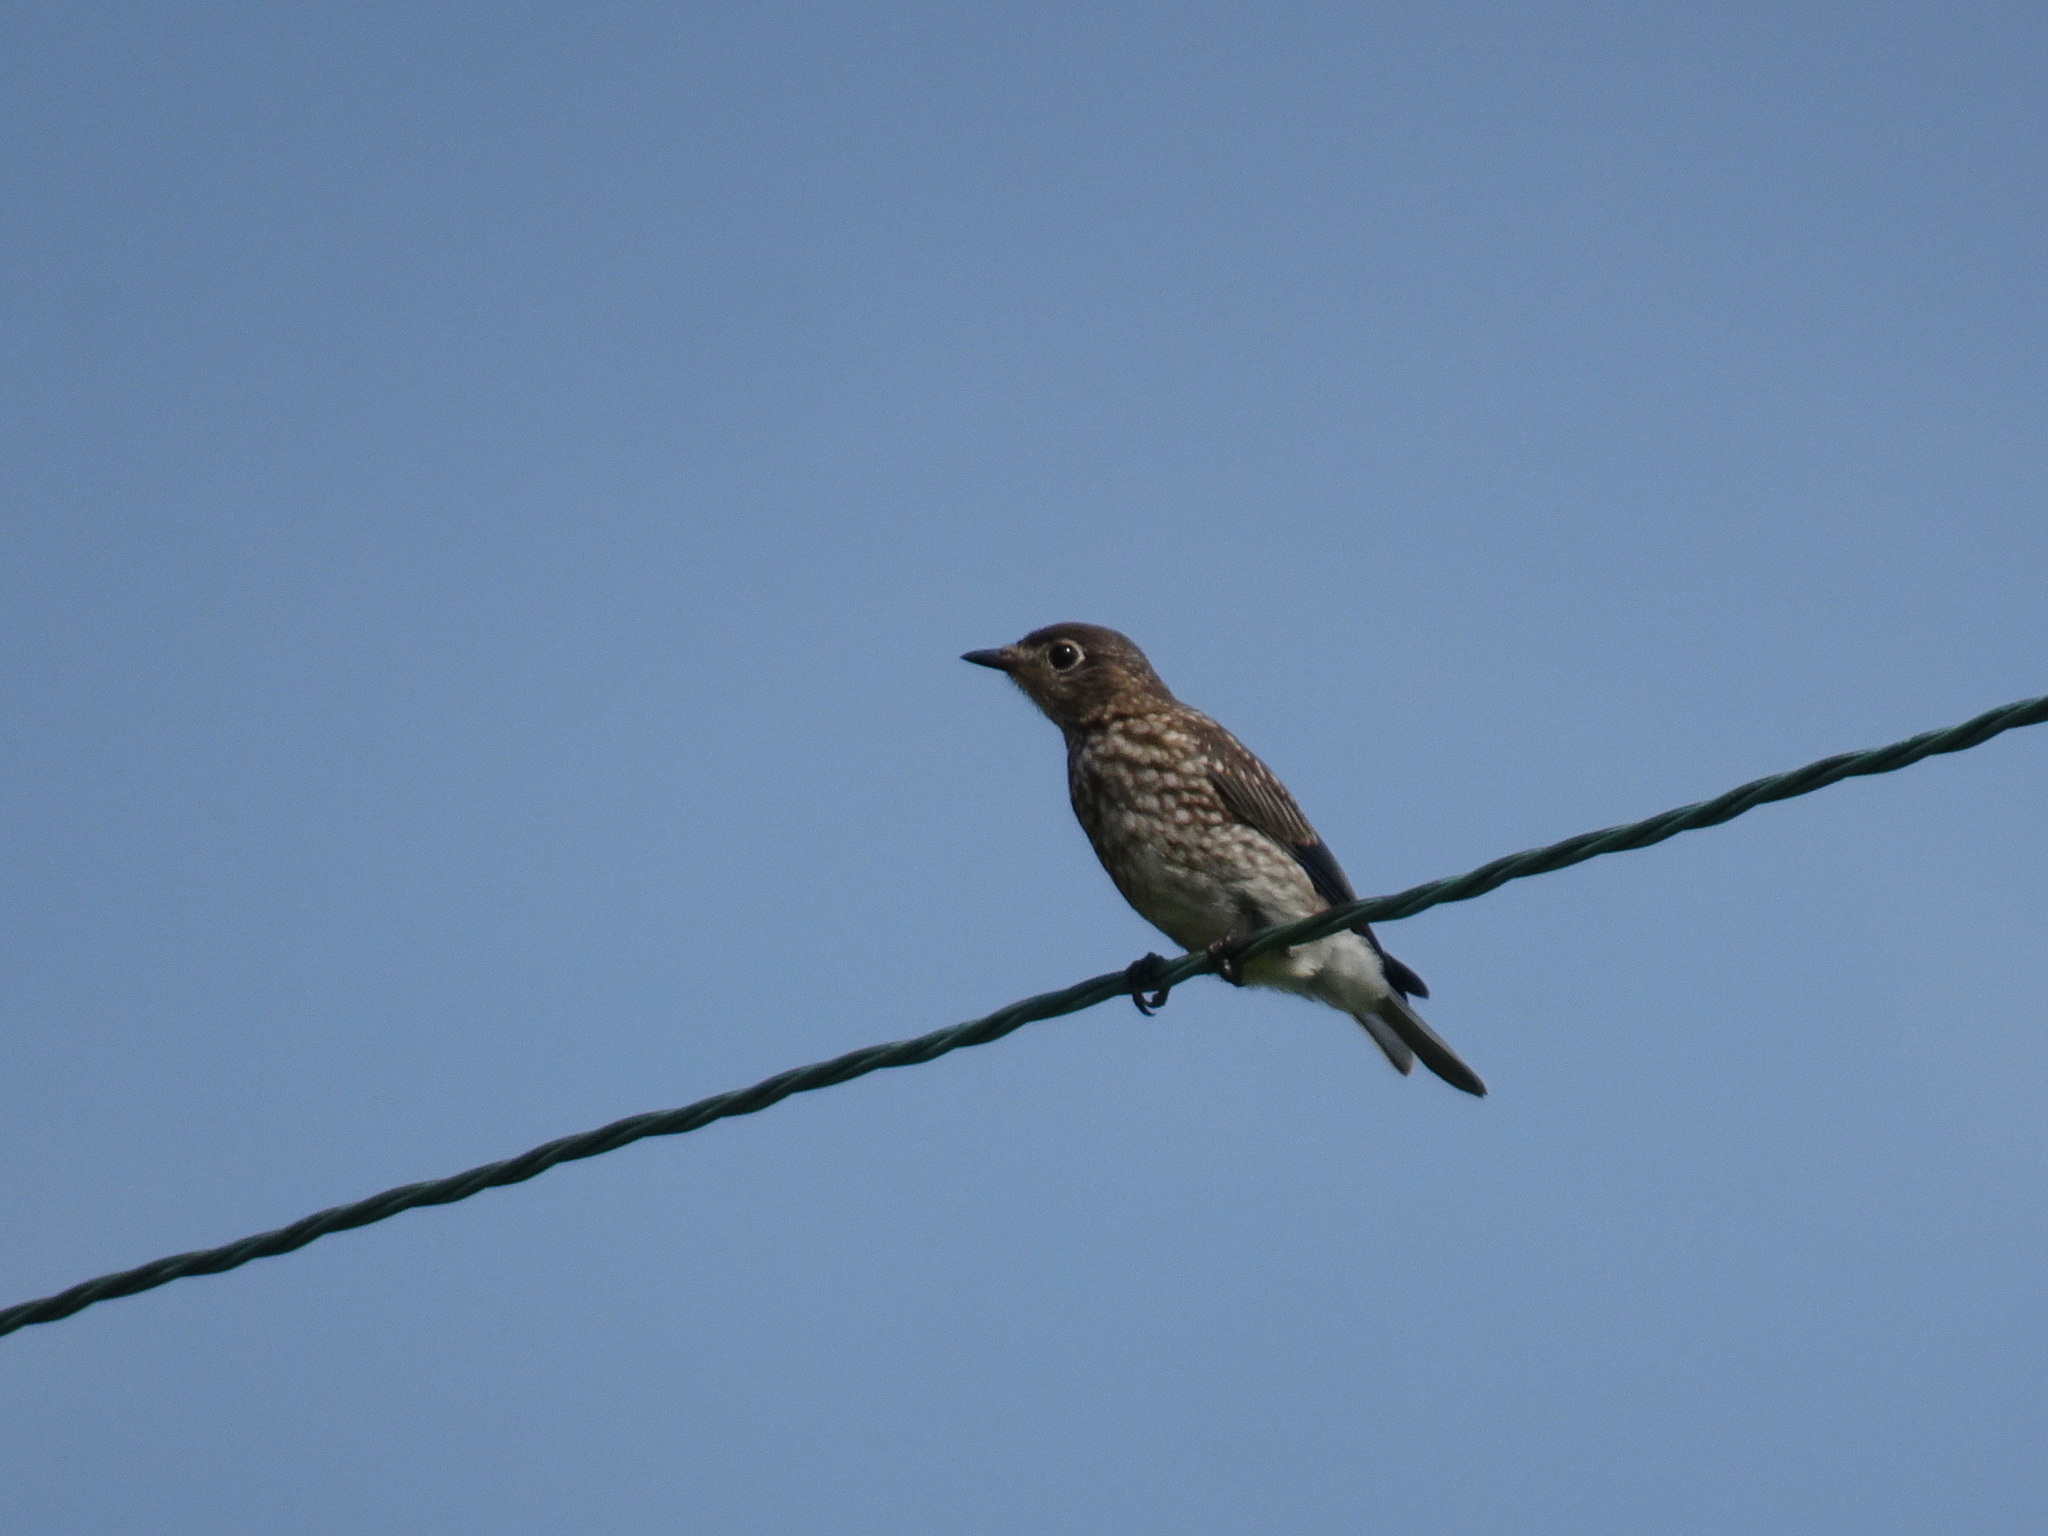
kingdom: Animalia
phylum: Chordata
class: Aves
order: Passeriformes
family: Turdidae
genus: Sialia
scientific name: Sialia sialis
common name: Eastern bluebird
